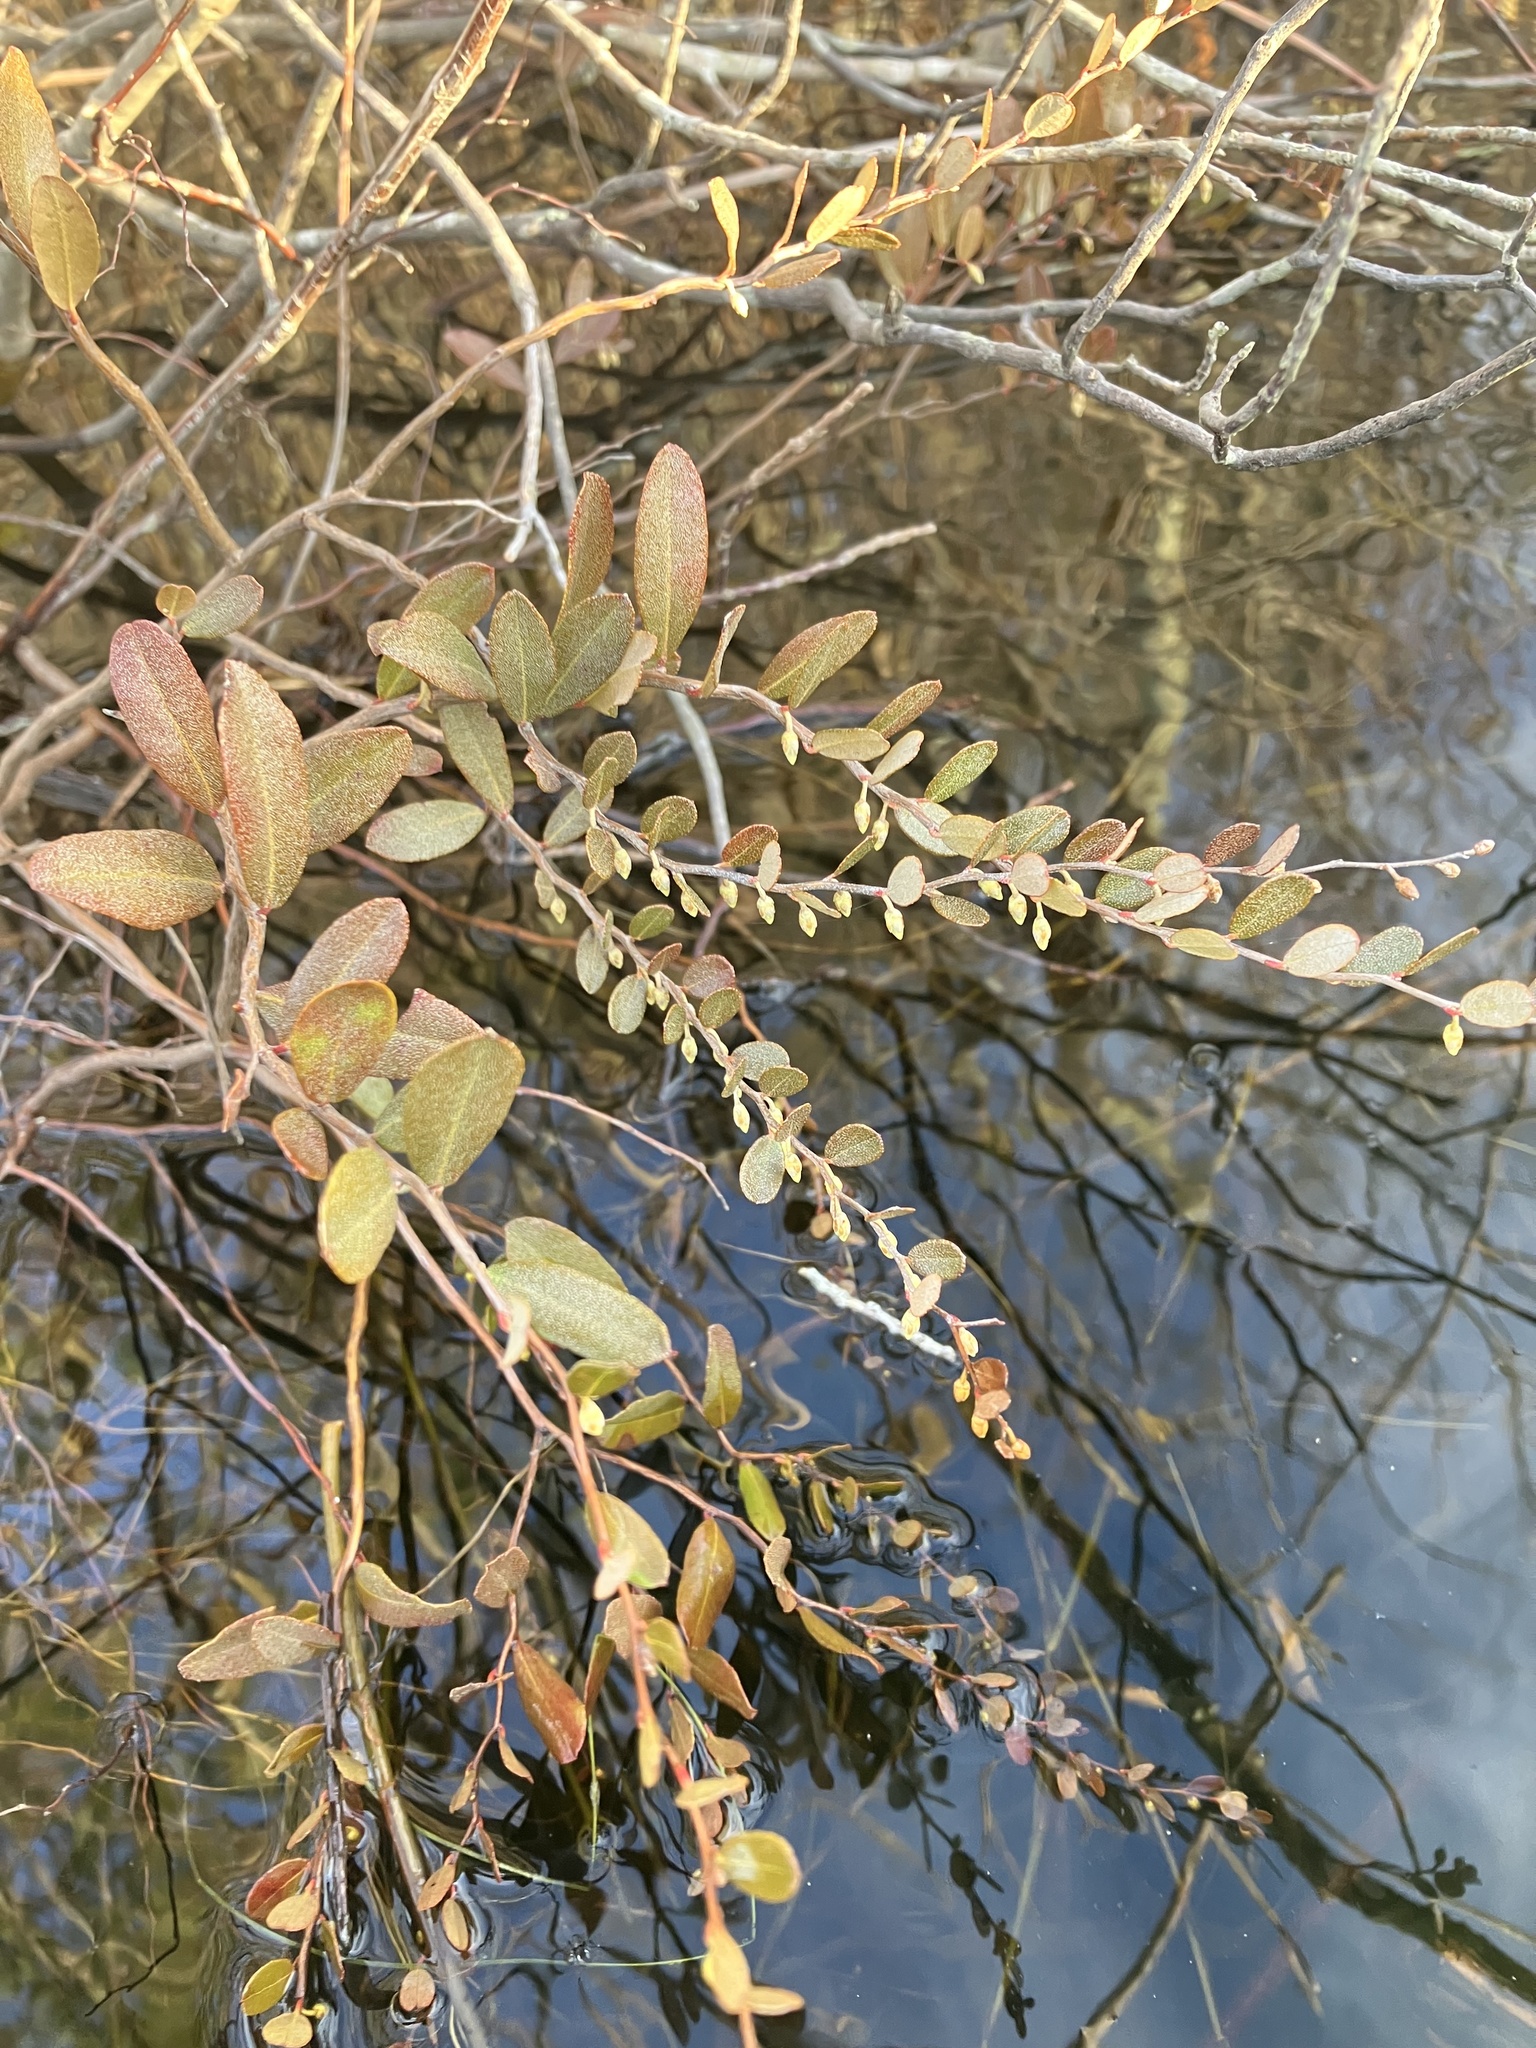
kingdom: Plantae
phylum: Tracheophyta
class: Magnoliopsida
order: Ericales
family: Ericaceae
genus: Chamaedaphne
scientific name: Chamaedaphne calyculata
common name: Leatherleaf
